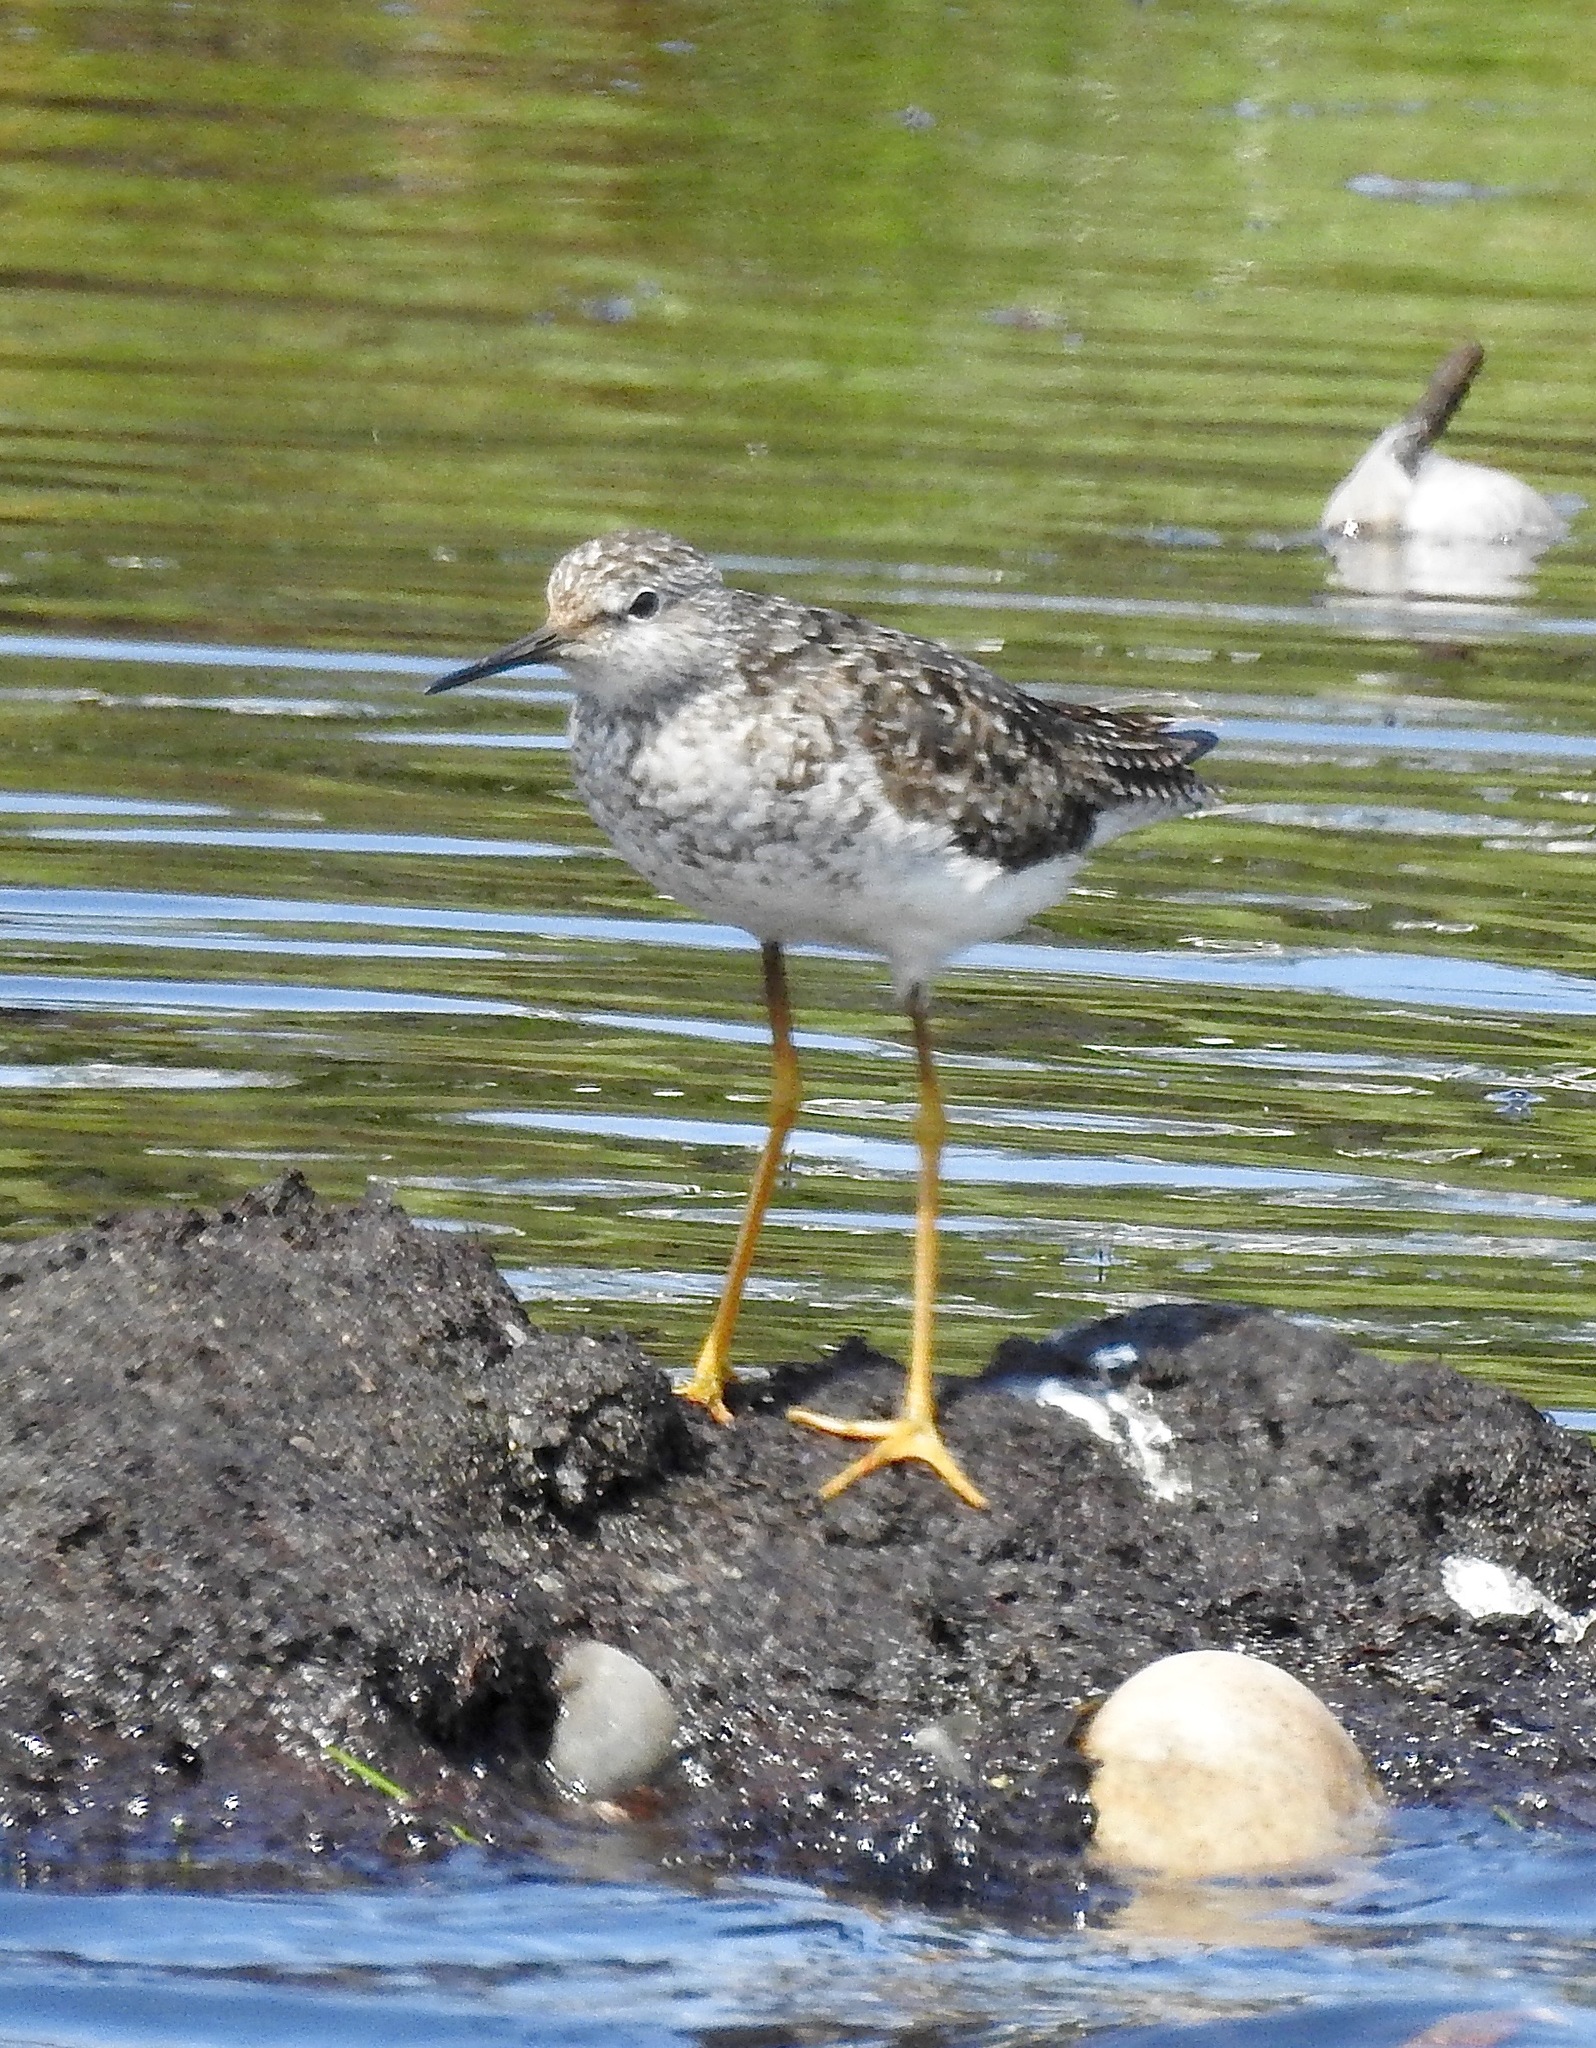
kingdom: Animalia
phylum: Chordata
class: Aves
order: Charadriiformes
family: Scolopacidae
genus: Tringa
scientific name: Tringa flavipes
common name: Lesser yellowlegs
